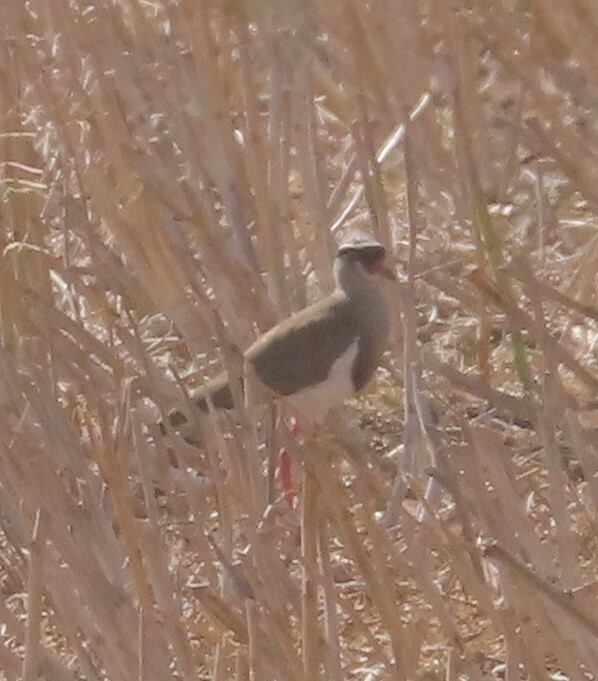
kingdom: Animalia
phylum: Chordata
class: Aves
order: Charadriiformes
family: Charadriidae
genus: Vanellus
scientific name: Vanellus coronatus
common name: Crowned lapwing
